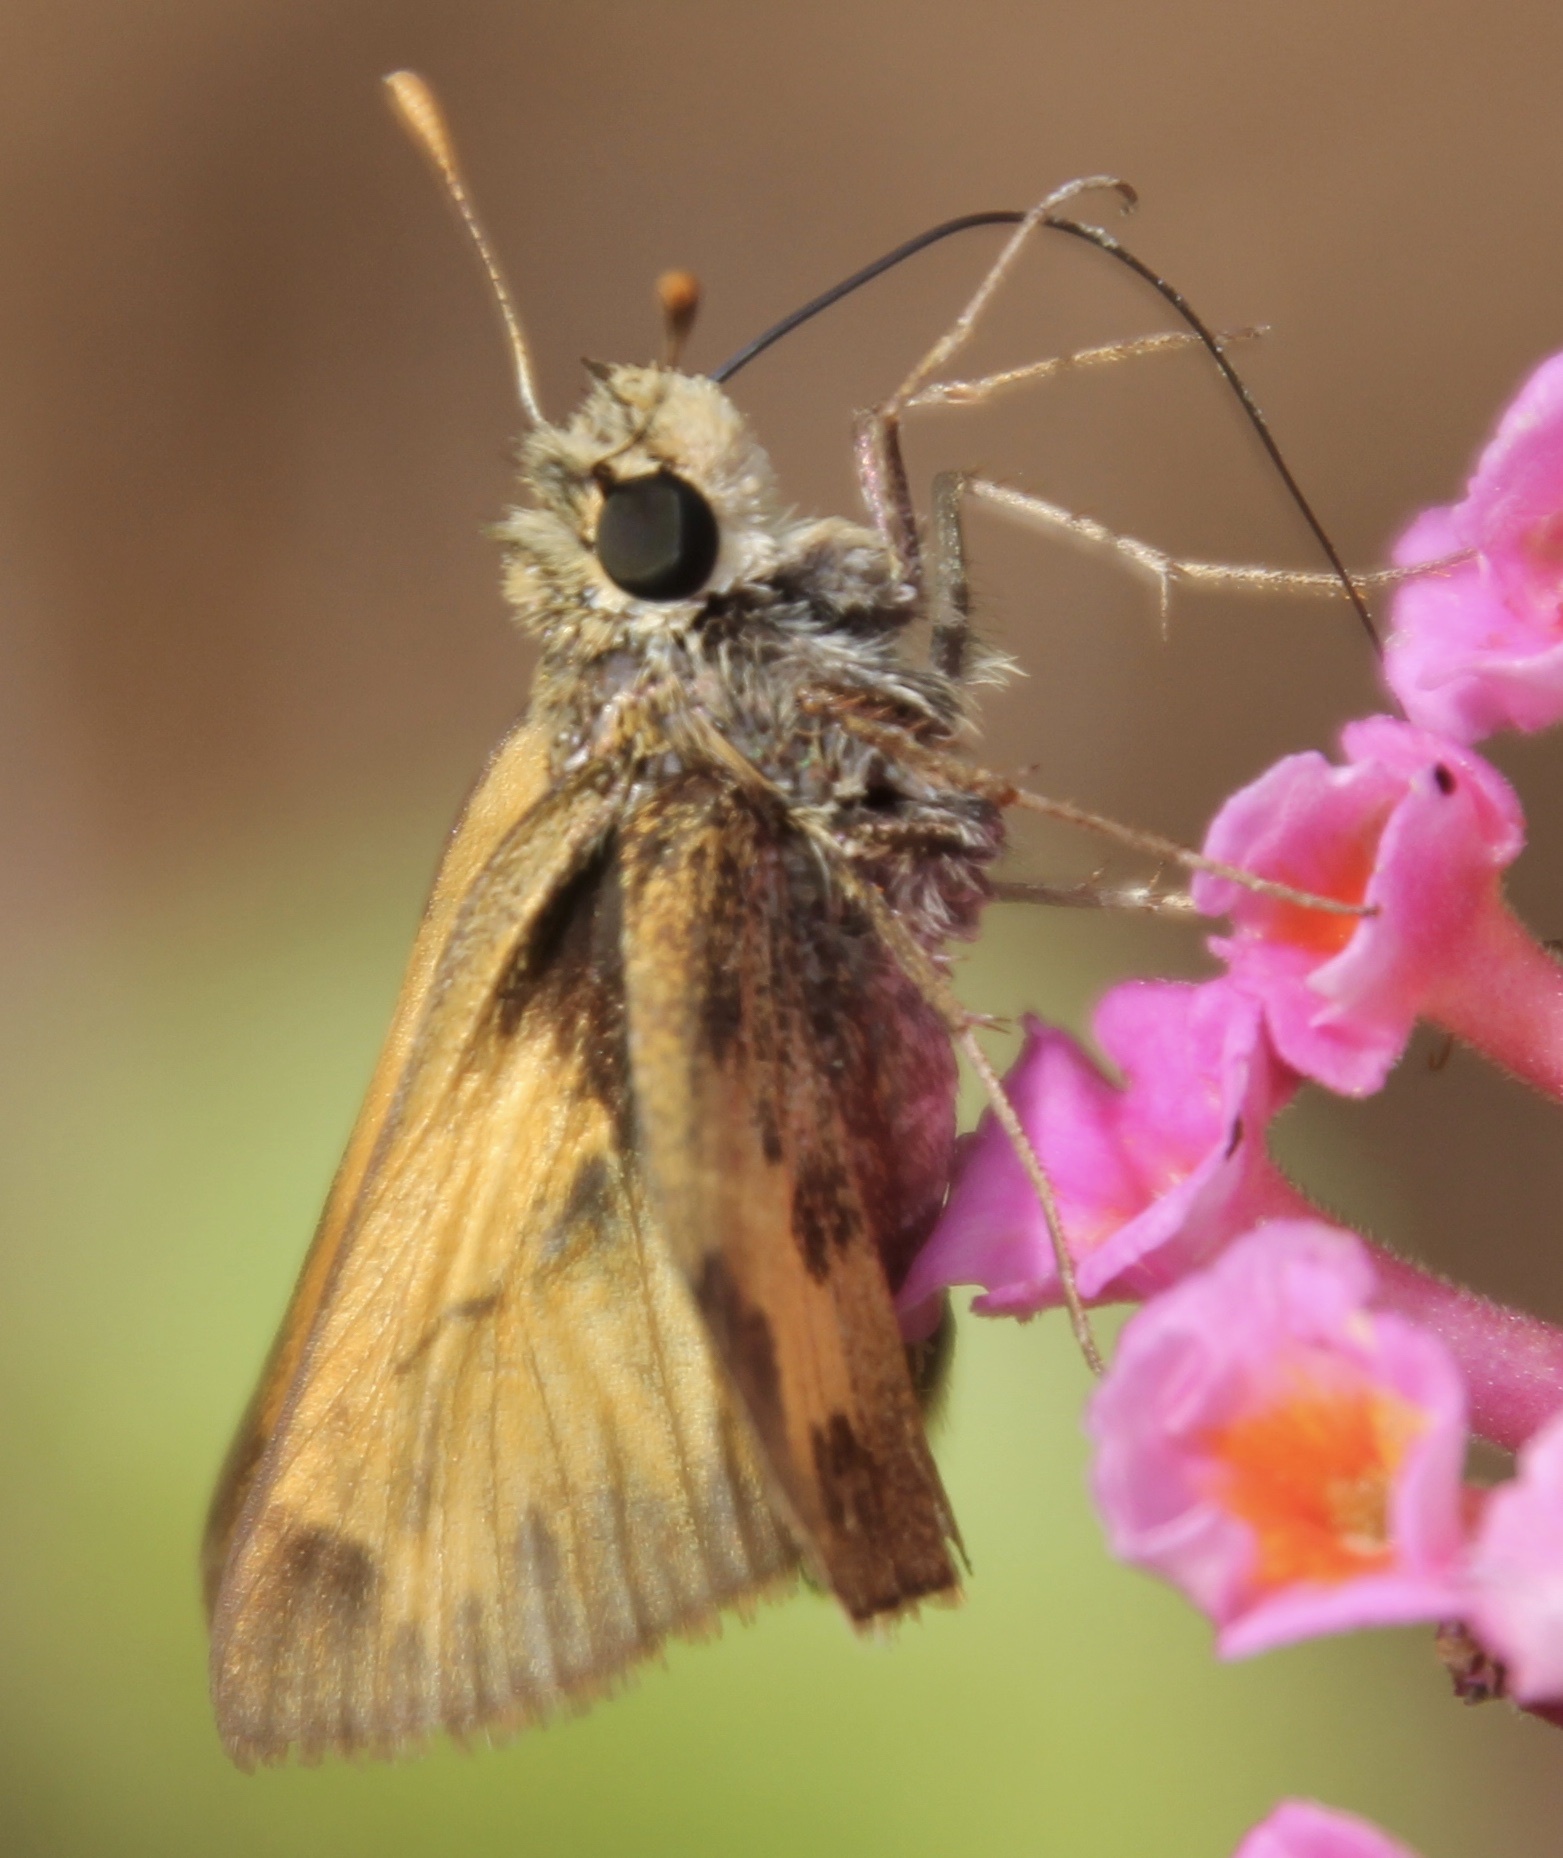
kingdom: Animalia
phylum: Arthropoda
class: Insecta
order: Lepidoptera
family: Hesperiidae
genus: Polites
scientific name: Polites vibex
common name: Whirlabout
